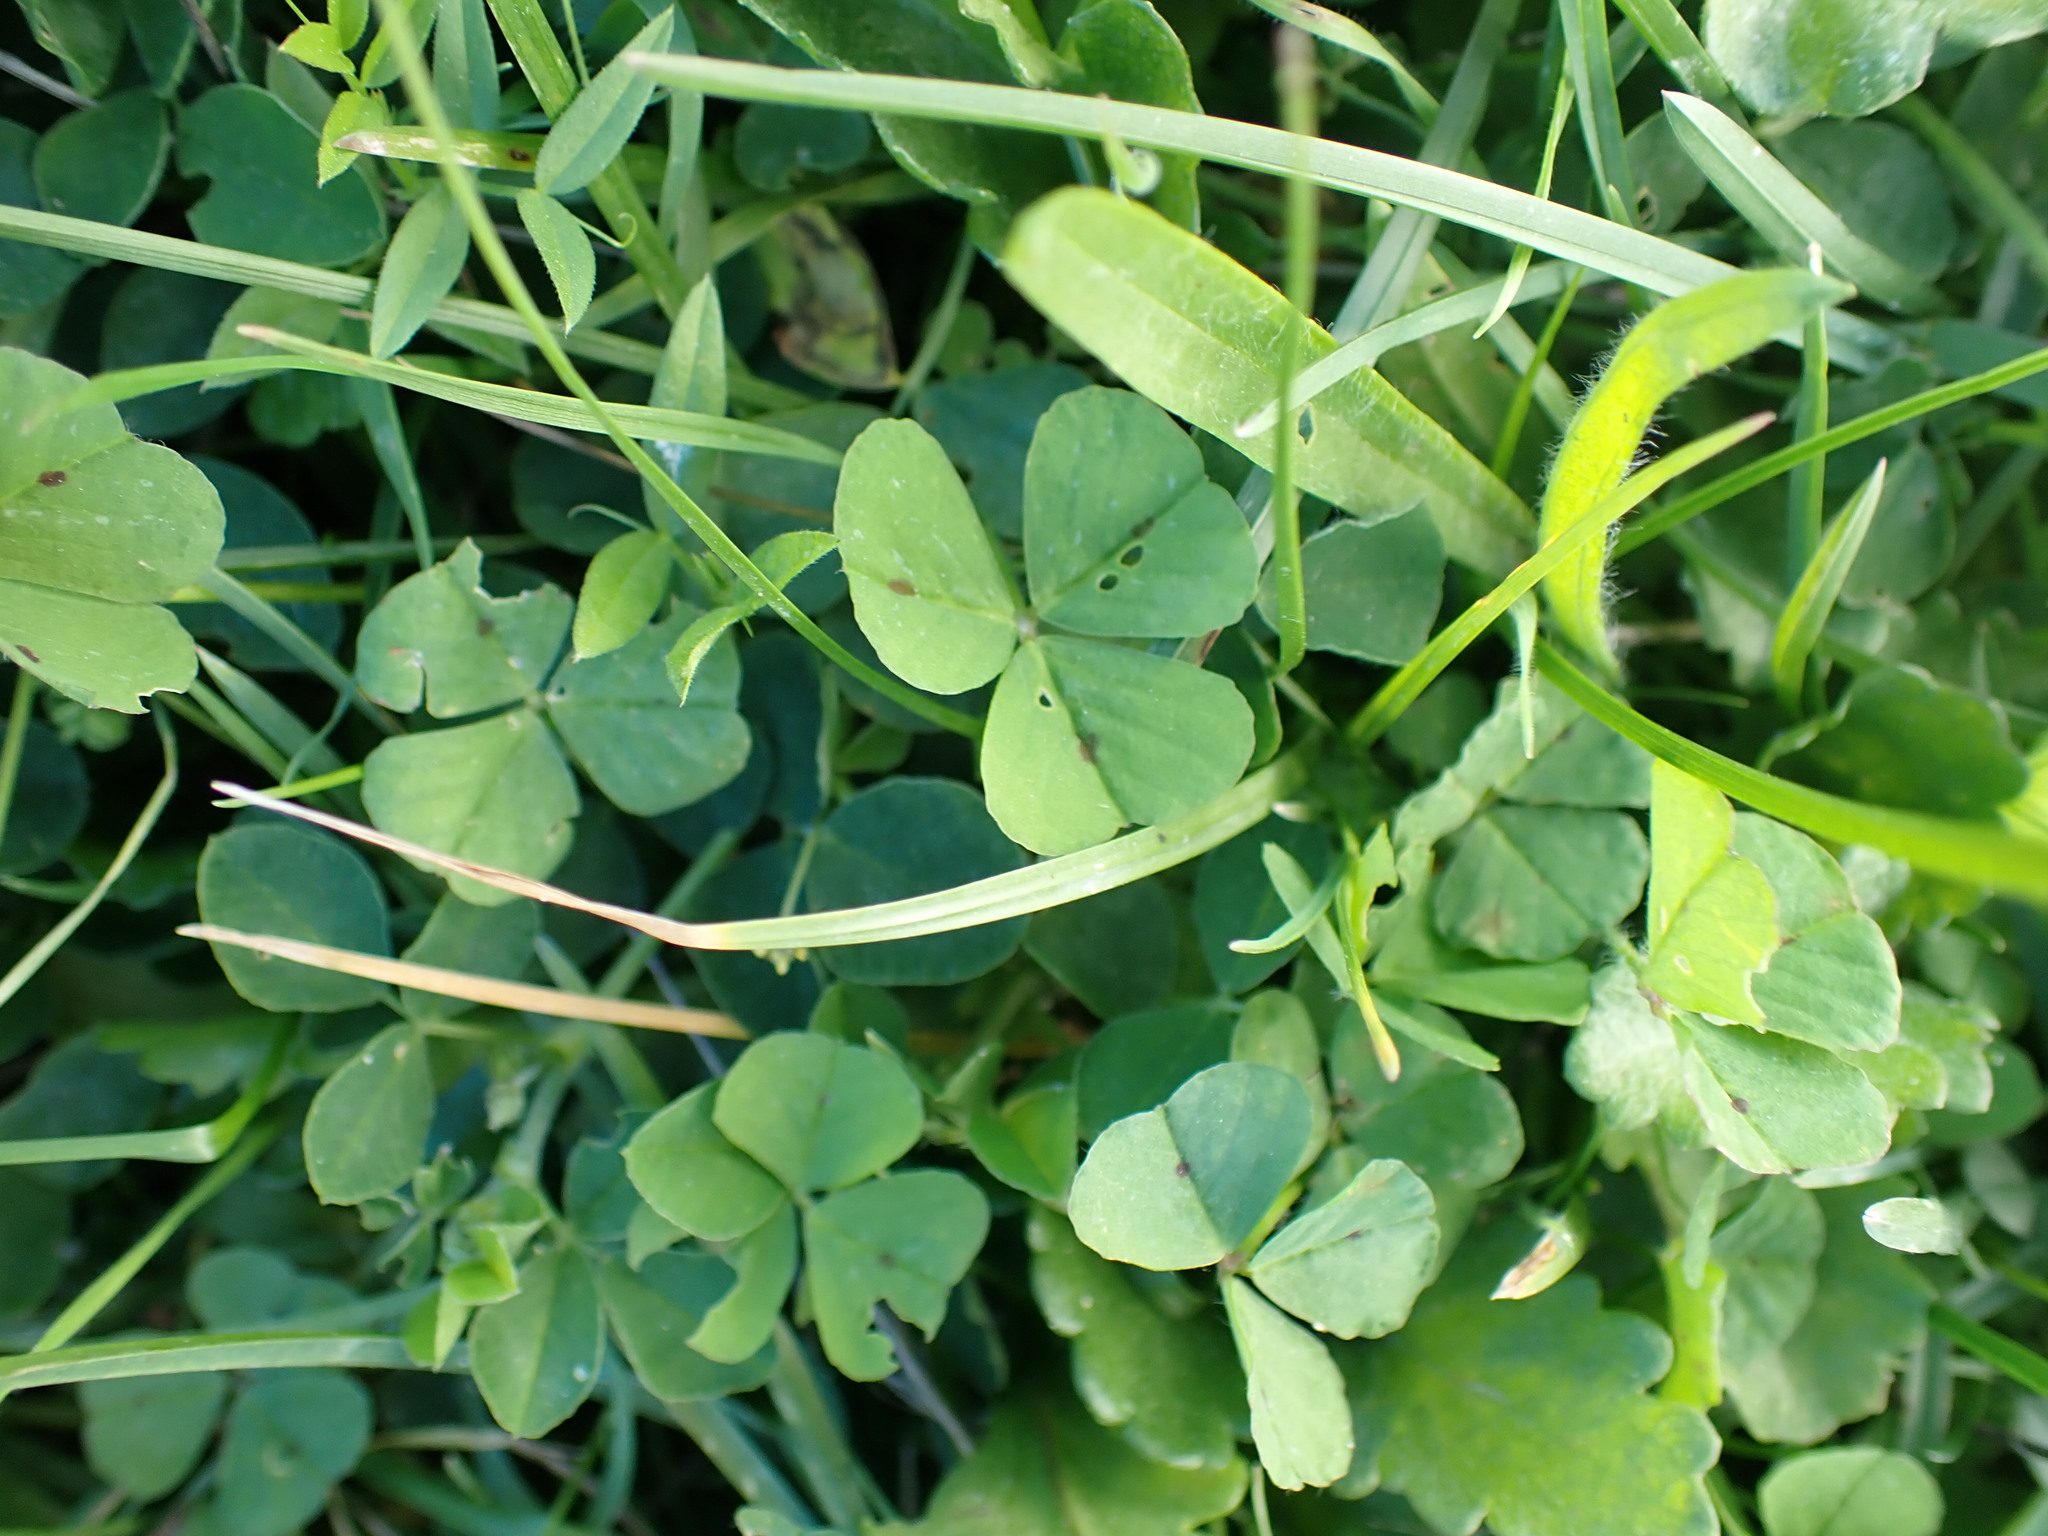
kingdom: Plantae
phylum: Tracheophyta
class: Magnoliopsida
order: Fabales
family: Fabaceae
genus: Medicago
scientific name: Medicago arabica
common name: Spotted medick
